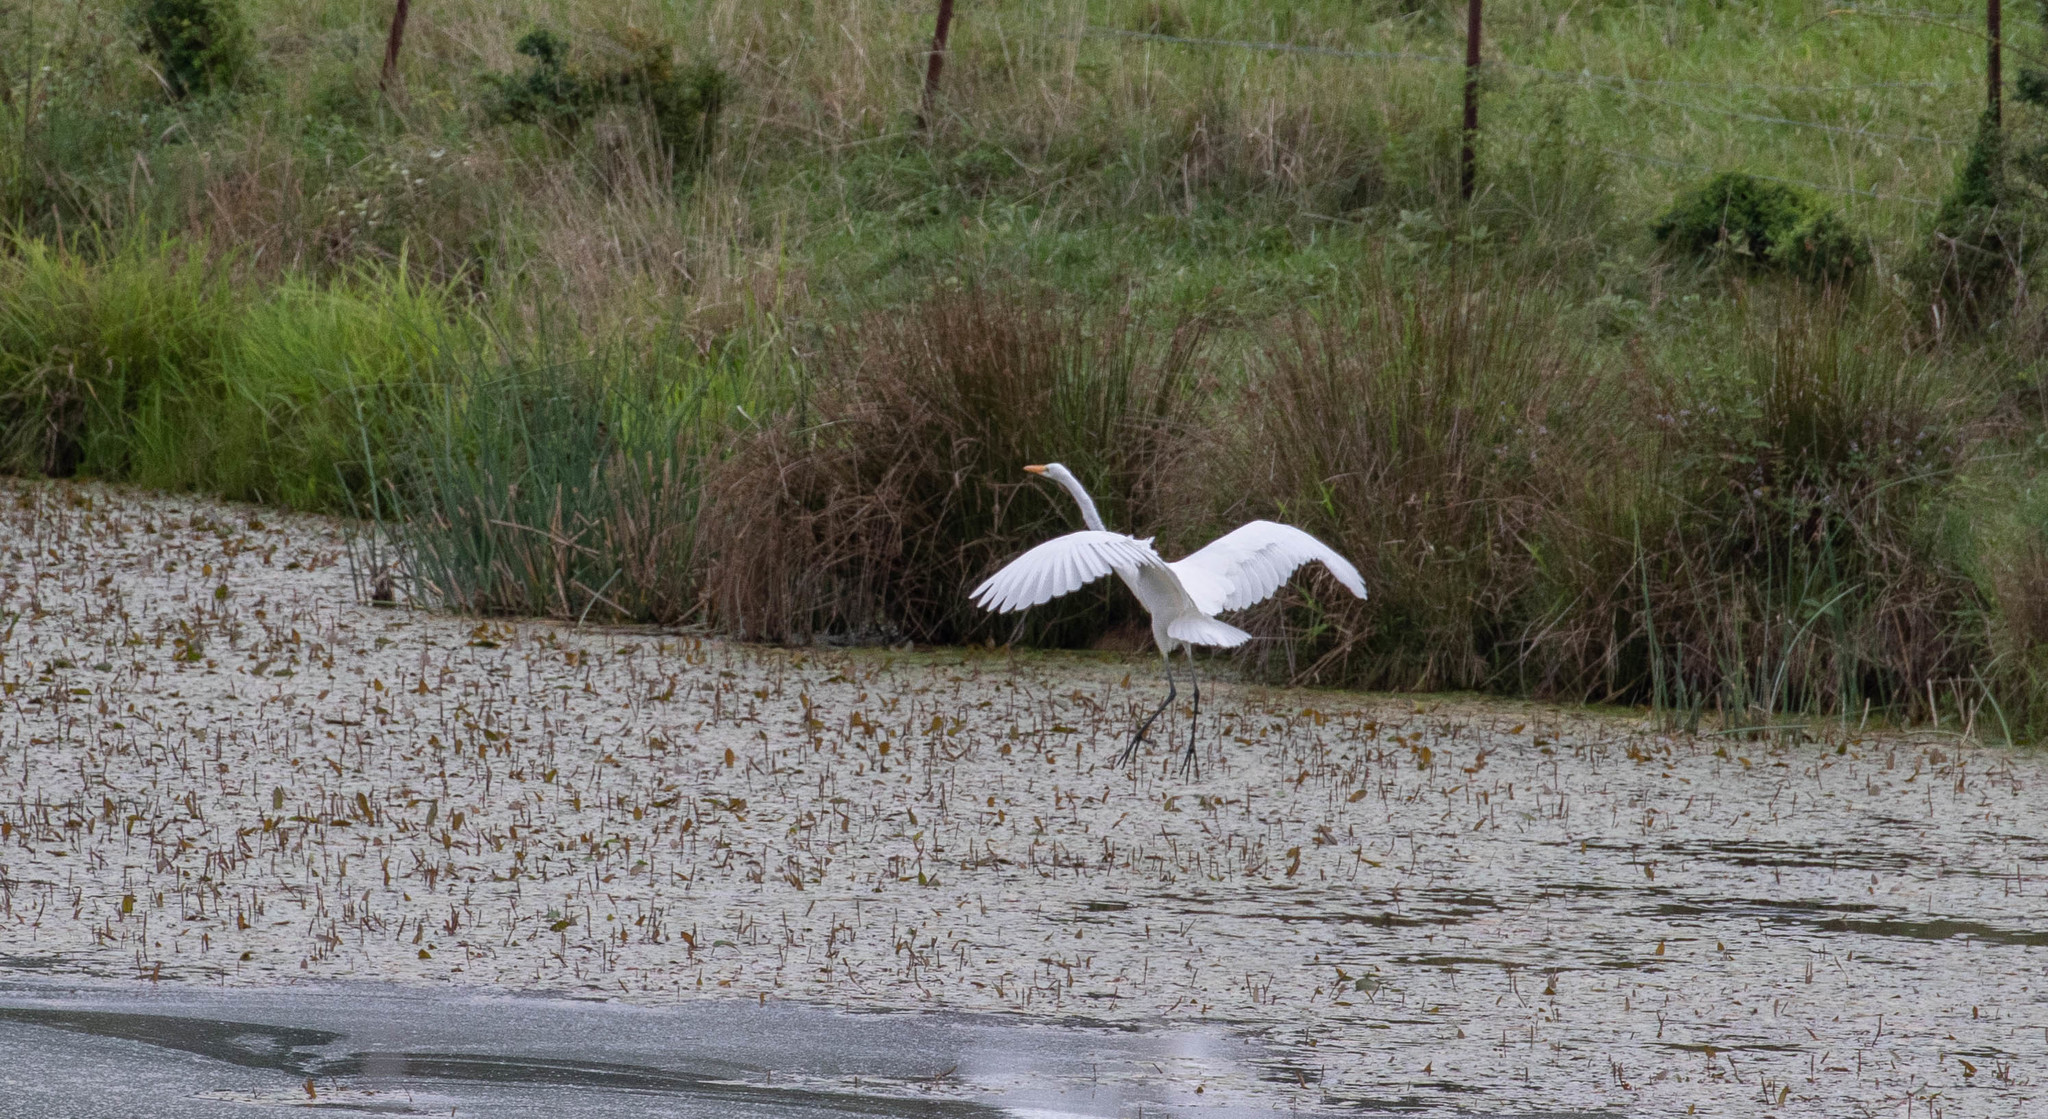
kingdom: Animalia
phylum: Chordata
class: Aves
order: Pelecaniformes
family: Ardeidae
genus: Ardea
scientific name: Ardea alba
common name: Great egret
